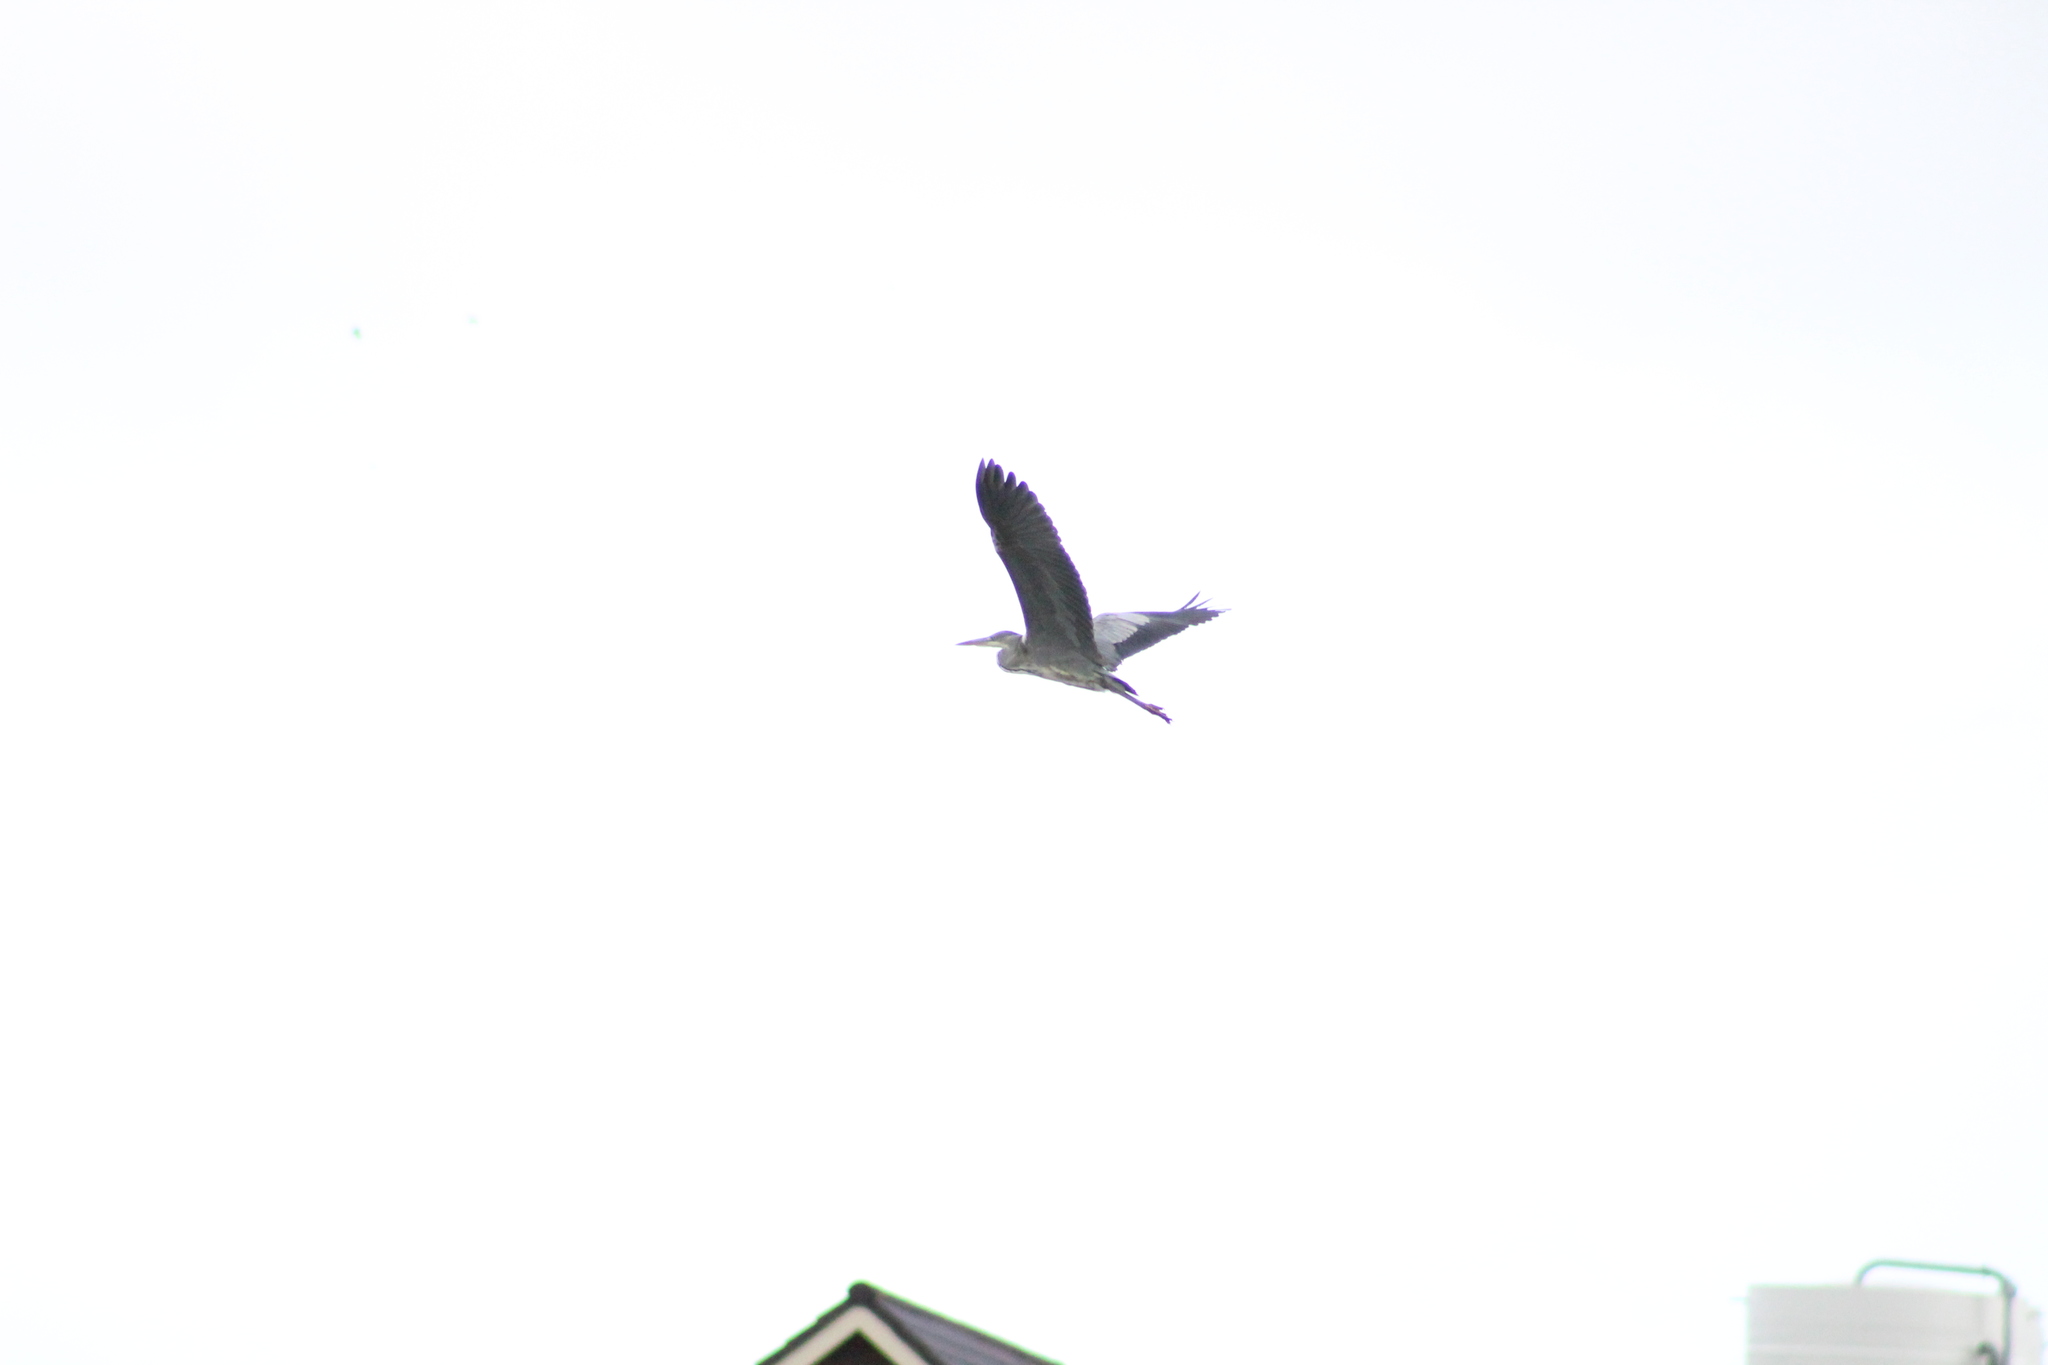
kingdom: Animalia
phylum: Chordata
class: Aves
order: Pelecaniformes
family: Ardeidae
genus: Ardea
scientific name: Ardea cinerea
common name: Grey heron
